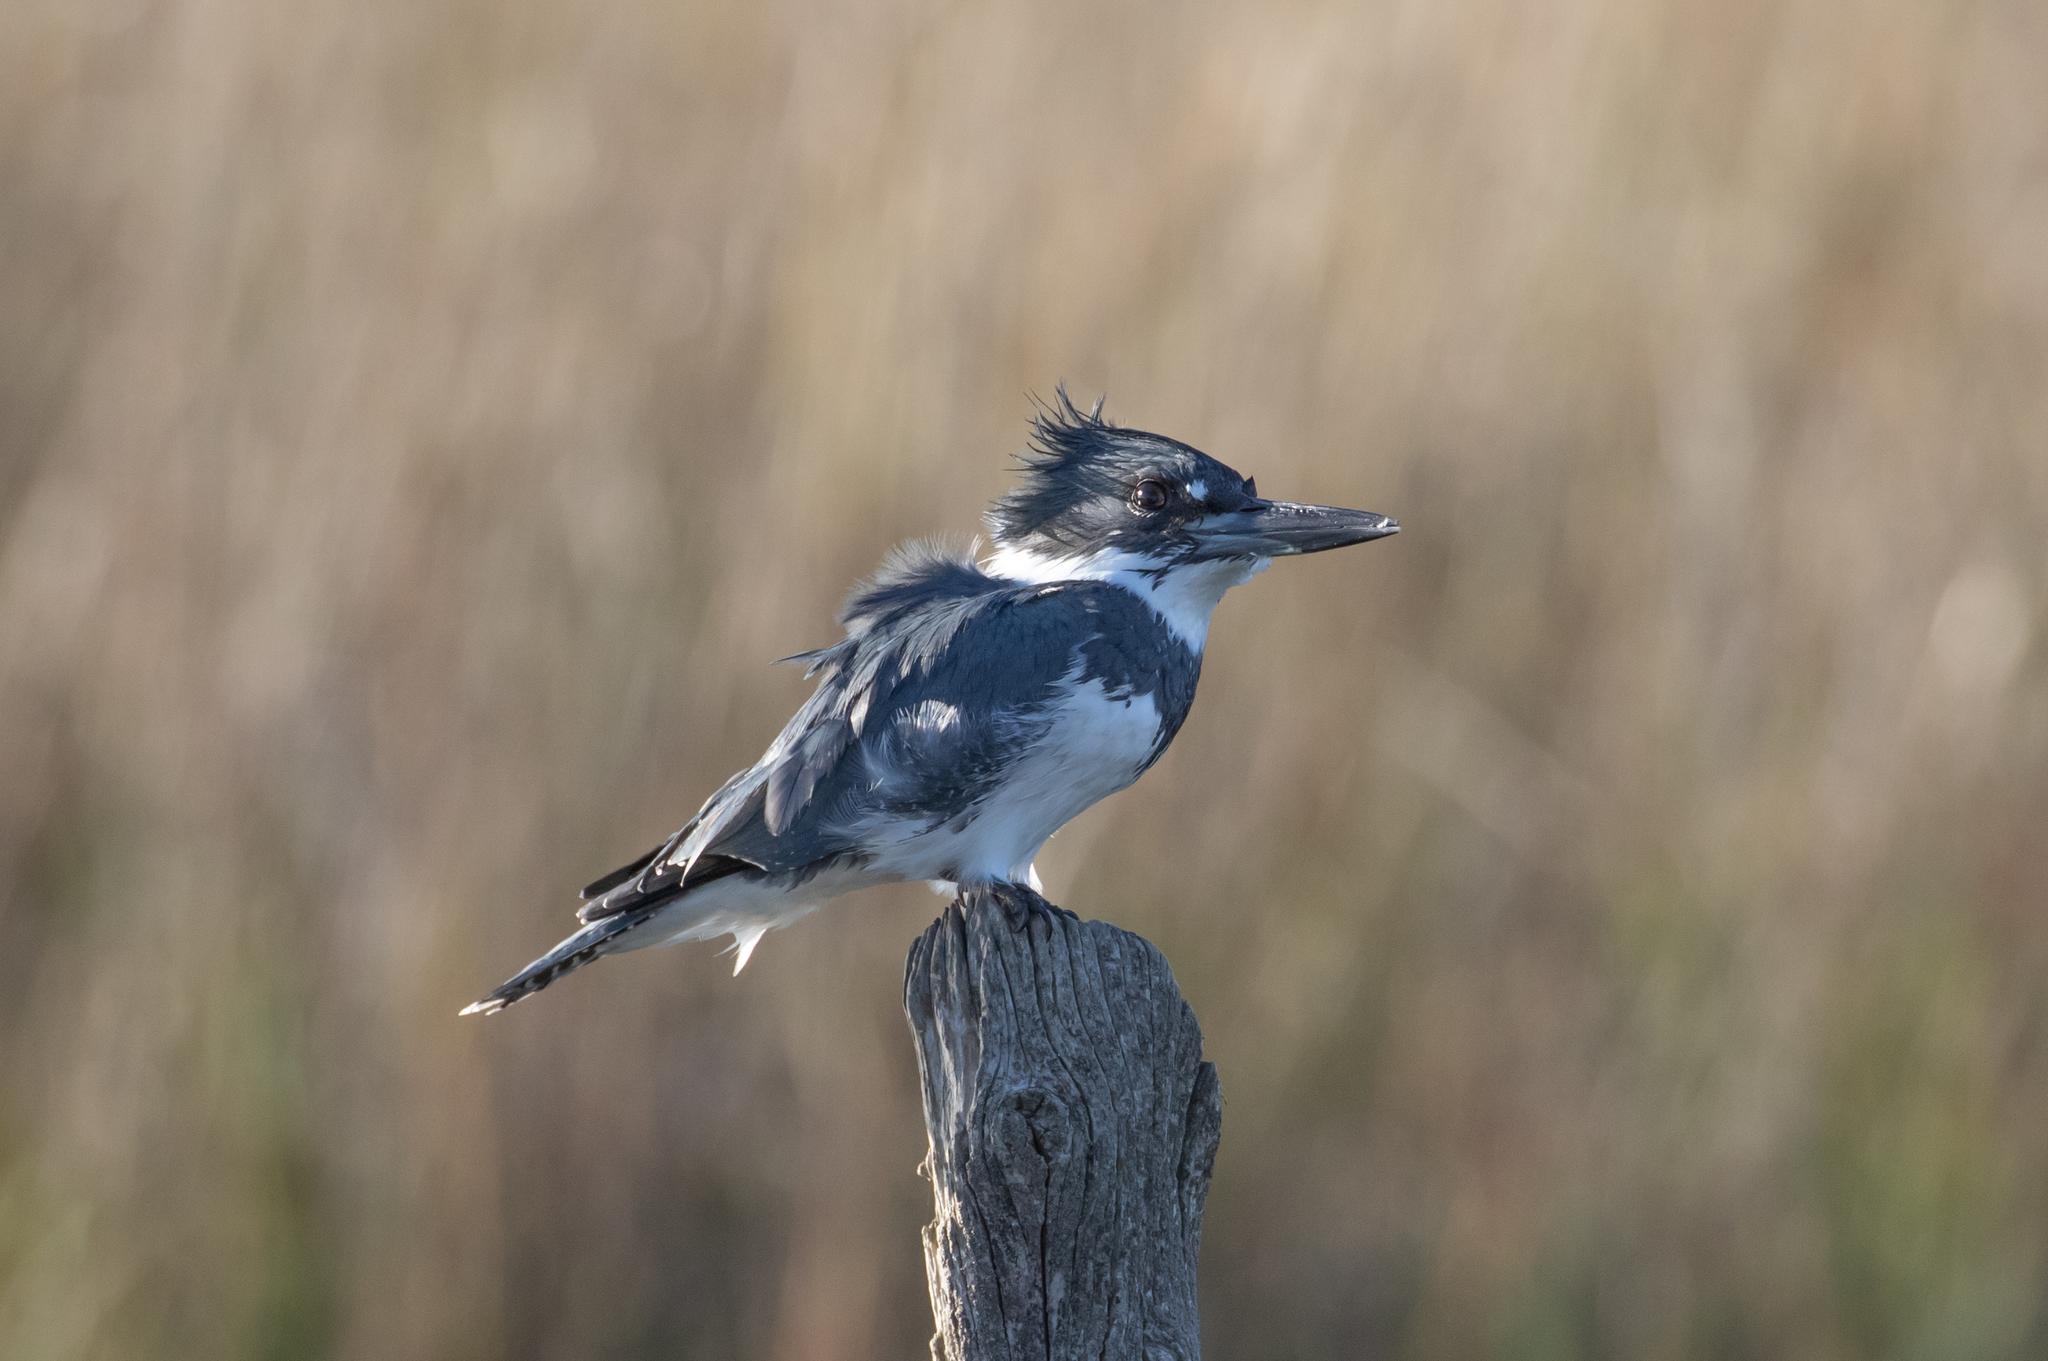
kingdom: Animalia
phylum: Chordata
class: Aves
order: Coraciiformes
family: Alcedinidae
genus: Megaceryle
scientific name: Megaceryle alcyon
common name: Belted kingfisher
